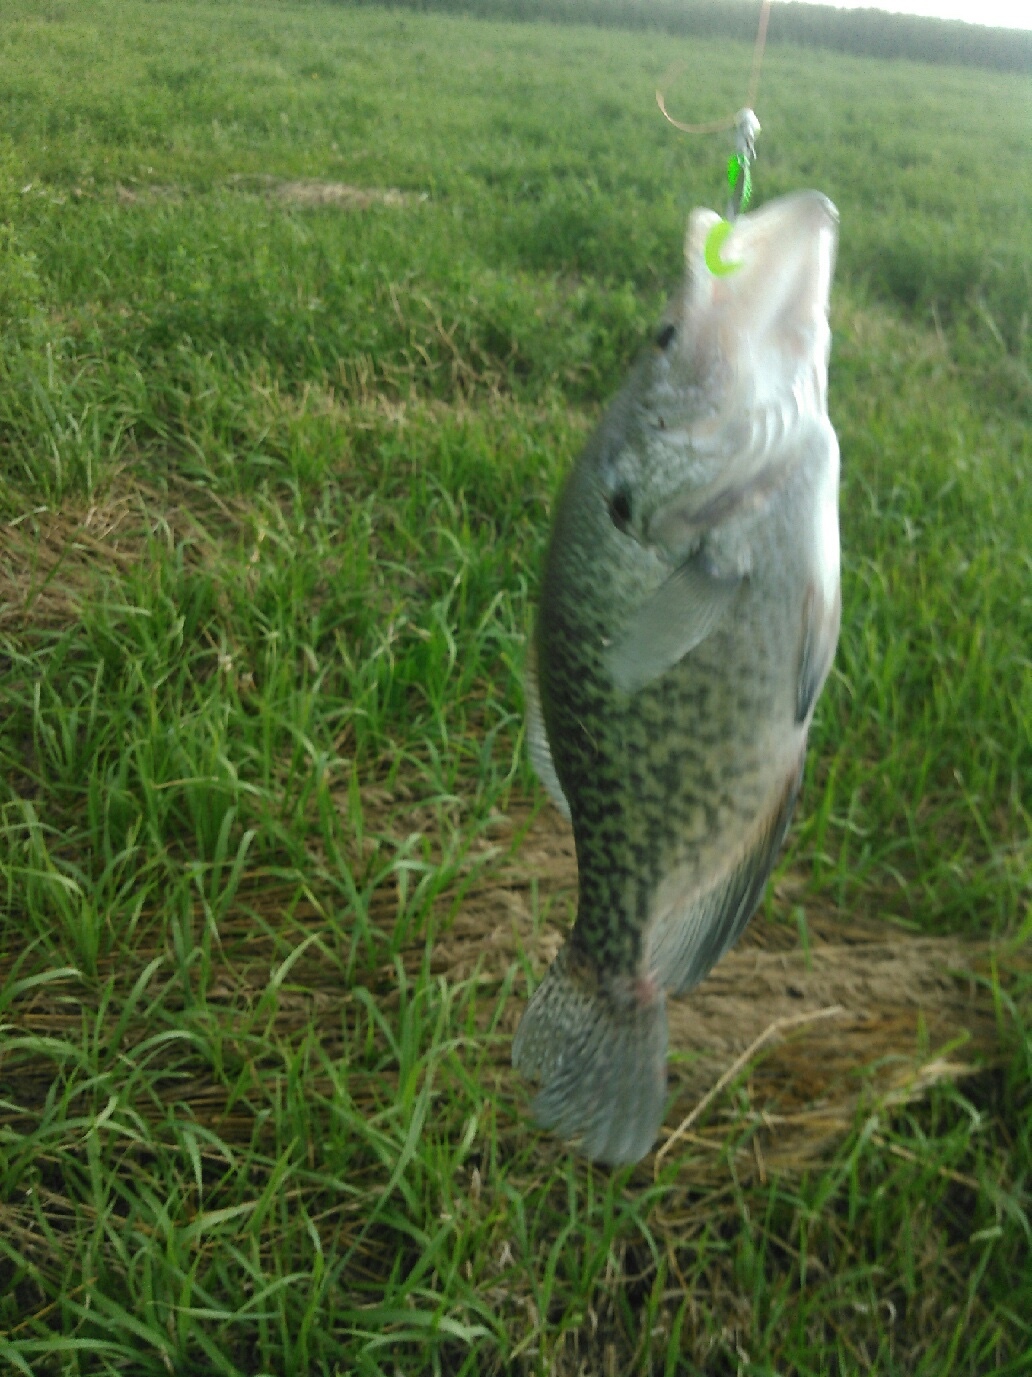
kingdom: Animalia
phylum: Chordata
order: Perciformes
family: Centrarchidae
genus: Pomoxis
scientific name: Pomoxis nigromaculatus
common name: Black crappie
